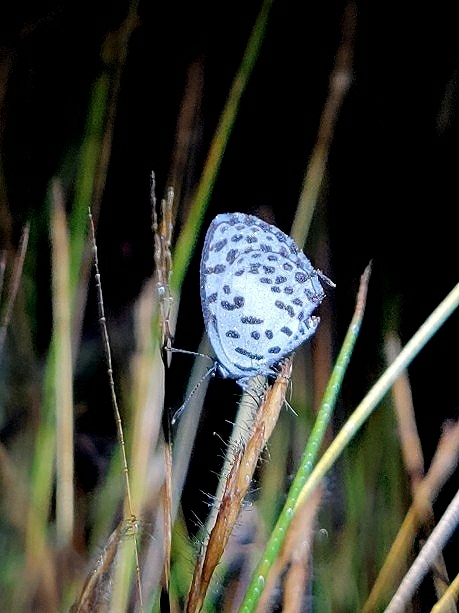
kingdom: Animalia
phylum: Arthropoda
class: Insecta
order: Lepidoptera
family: Lycaenidae
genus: Castalius
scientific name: Castalius rosimon
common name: Common pierrot
